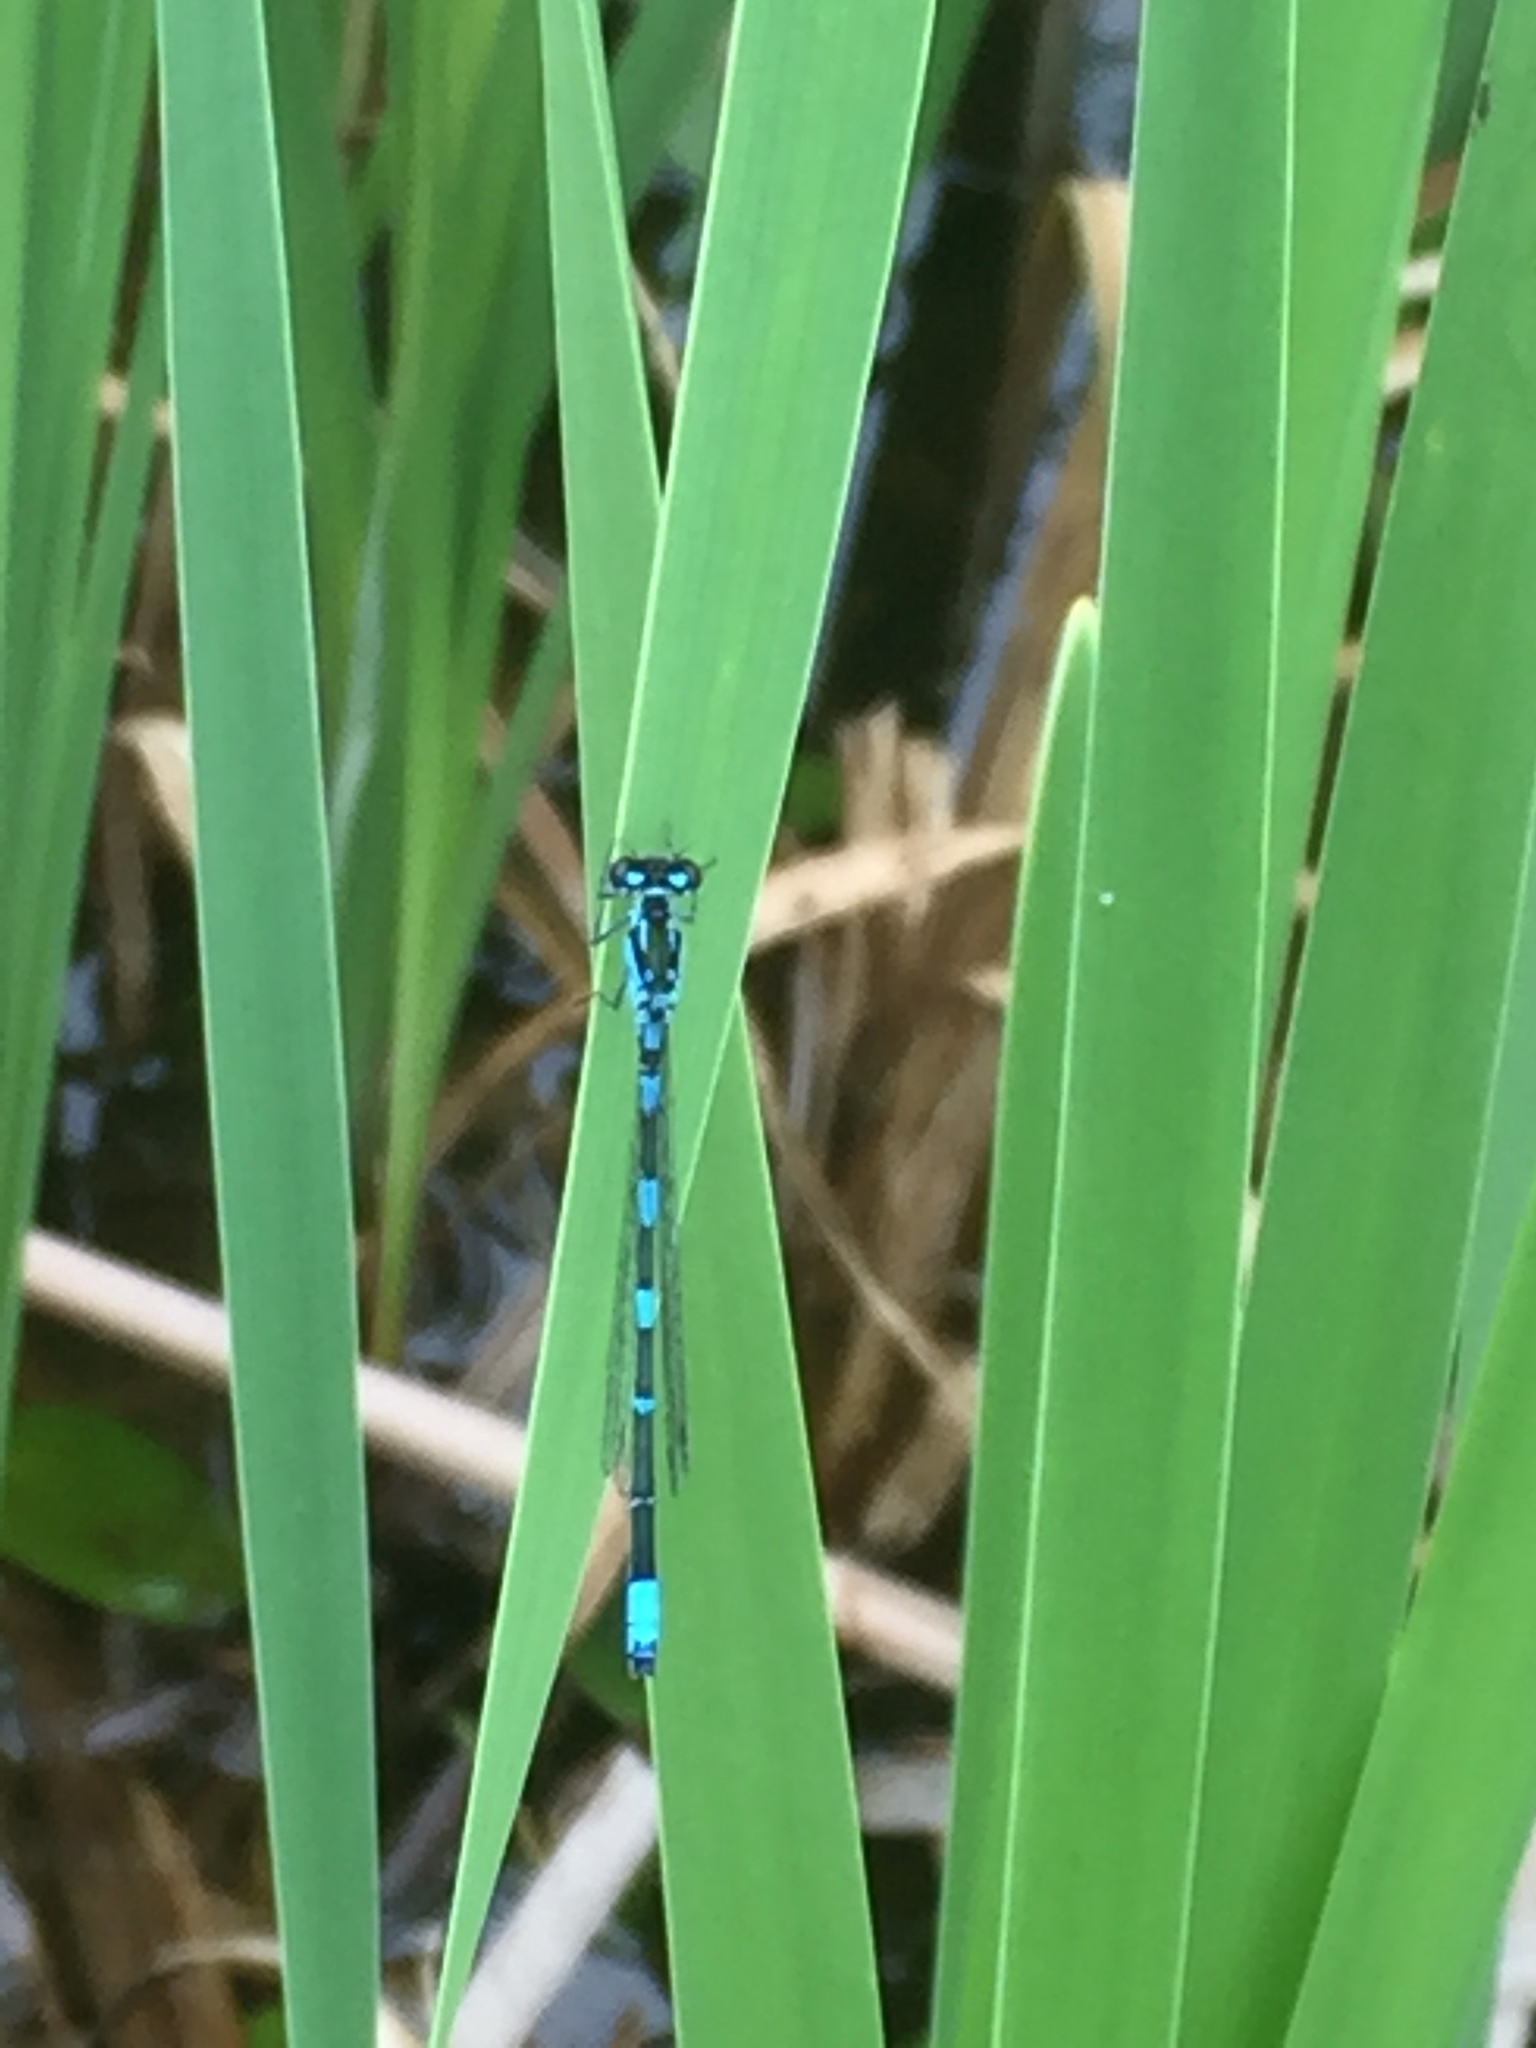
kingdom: Animalia
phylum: Arthropoda
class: Insecta
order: Odonata
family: Coenagrionidae
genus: Coenagrion
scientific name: Coenagrion pulchellum
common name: Variable bluet
